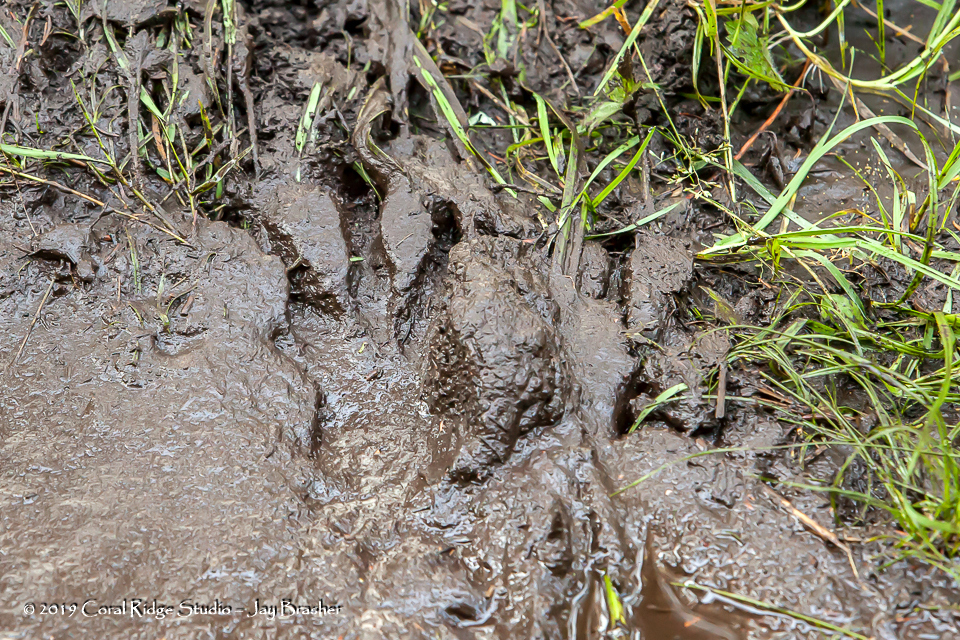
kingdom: Animalia
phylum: Chordata
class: Mammalia
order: Rodentia
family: Castoridae
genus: Castor
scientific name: Castor canadensis
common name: American beaver
